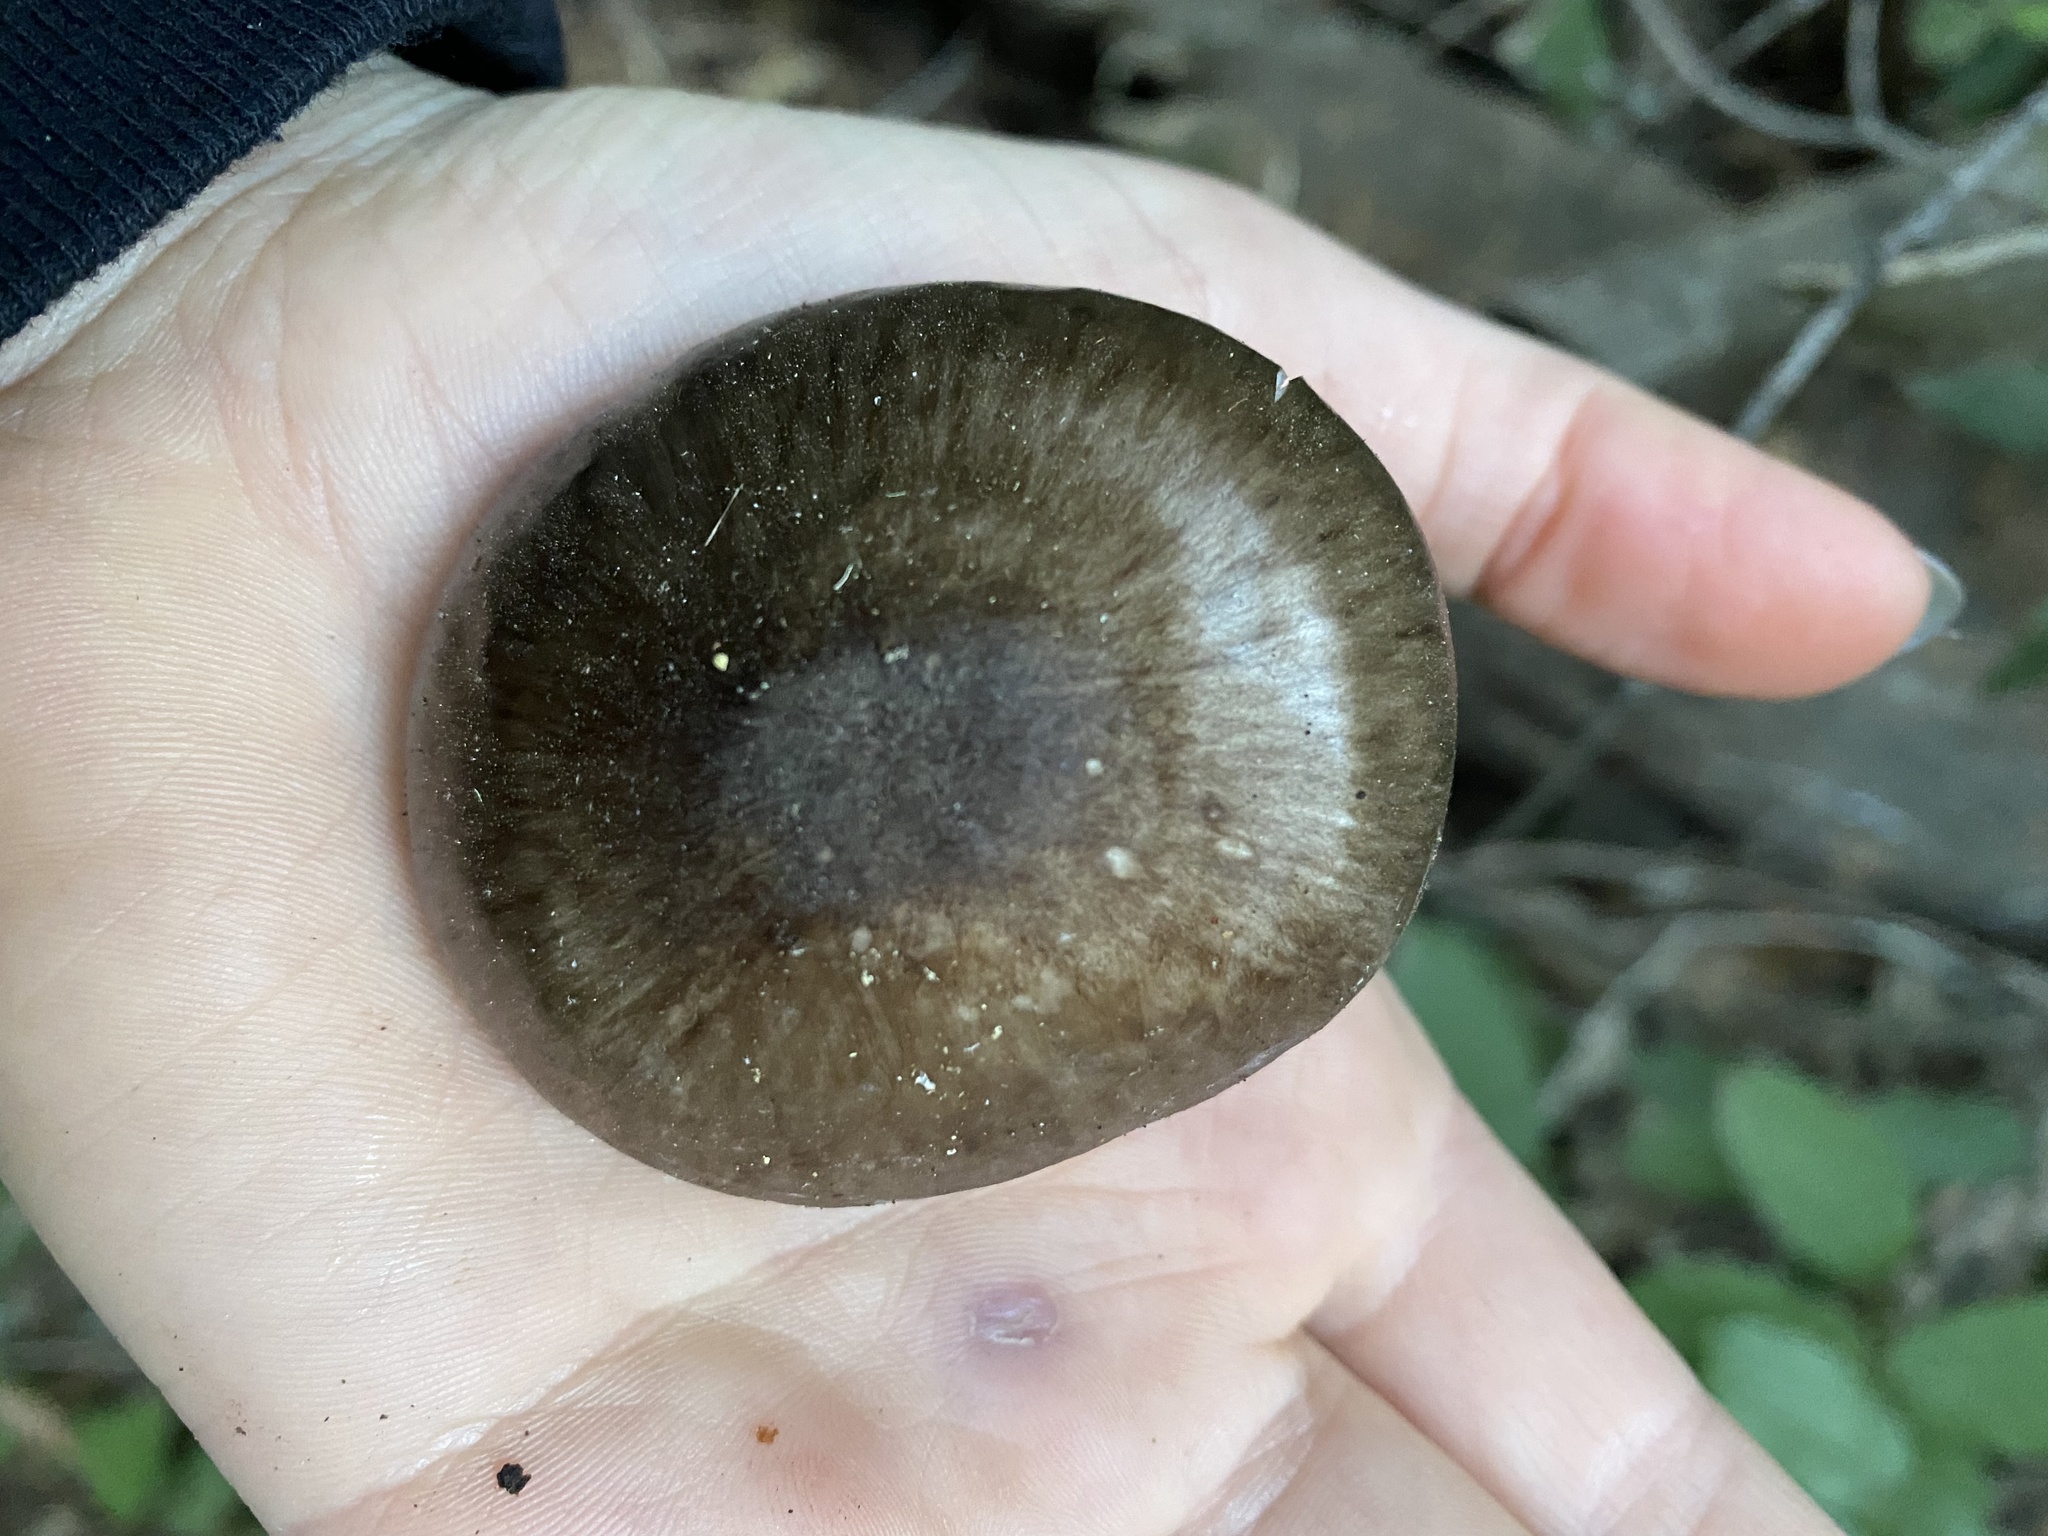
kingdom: Fungi
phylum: Basidiomycota
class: Agaricomycetes
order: Agaricales
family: Pluteaceae
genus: Pluteus
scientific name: Pluteus exilis
